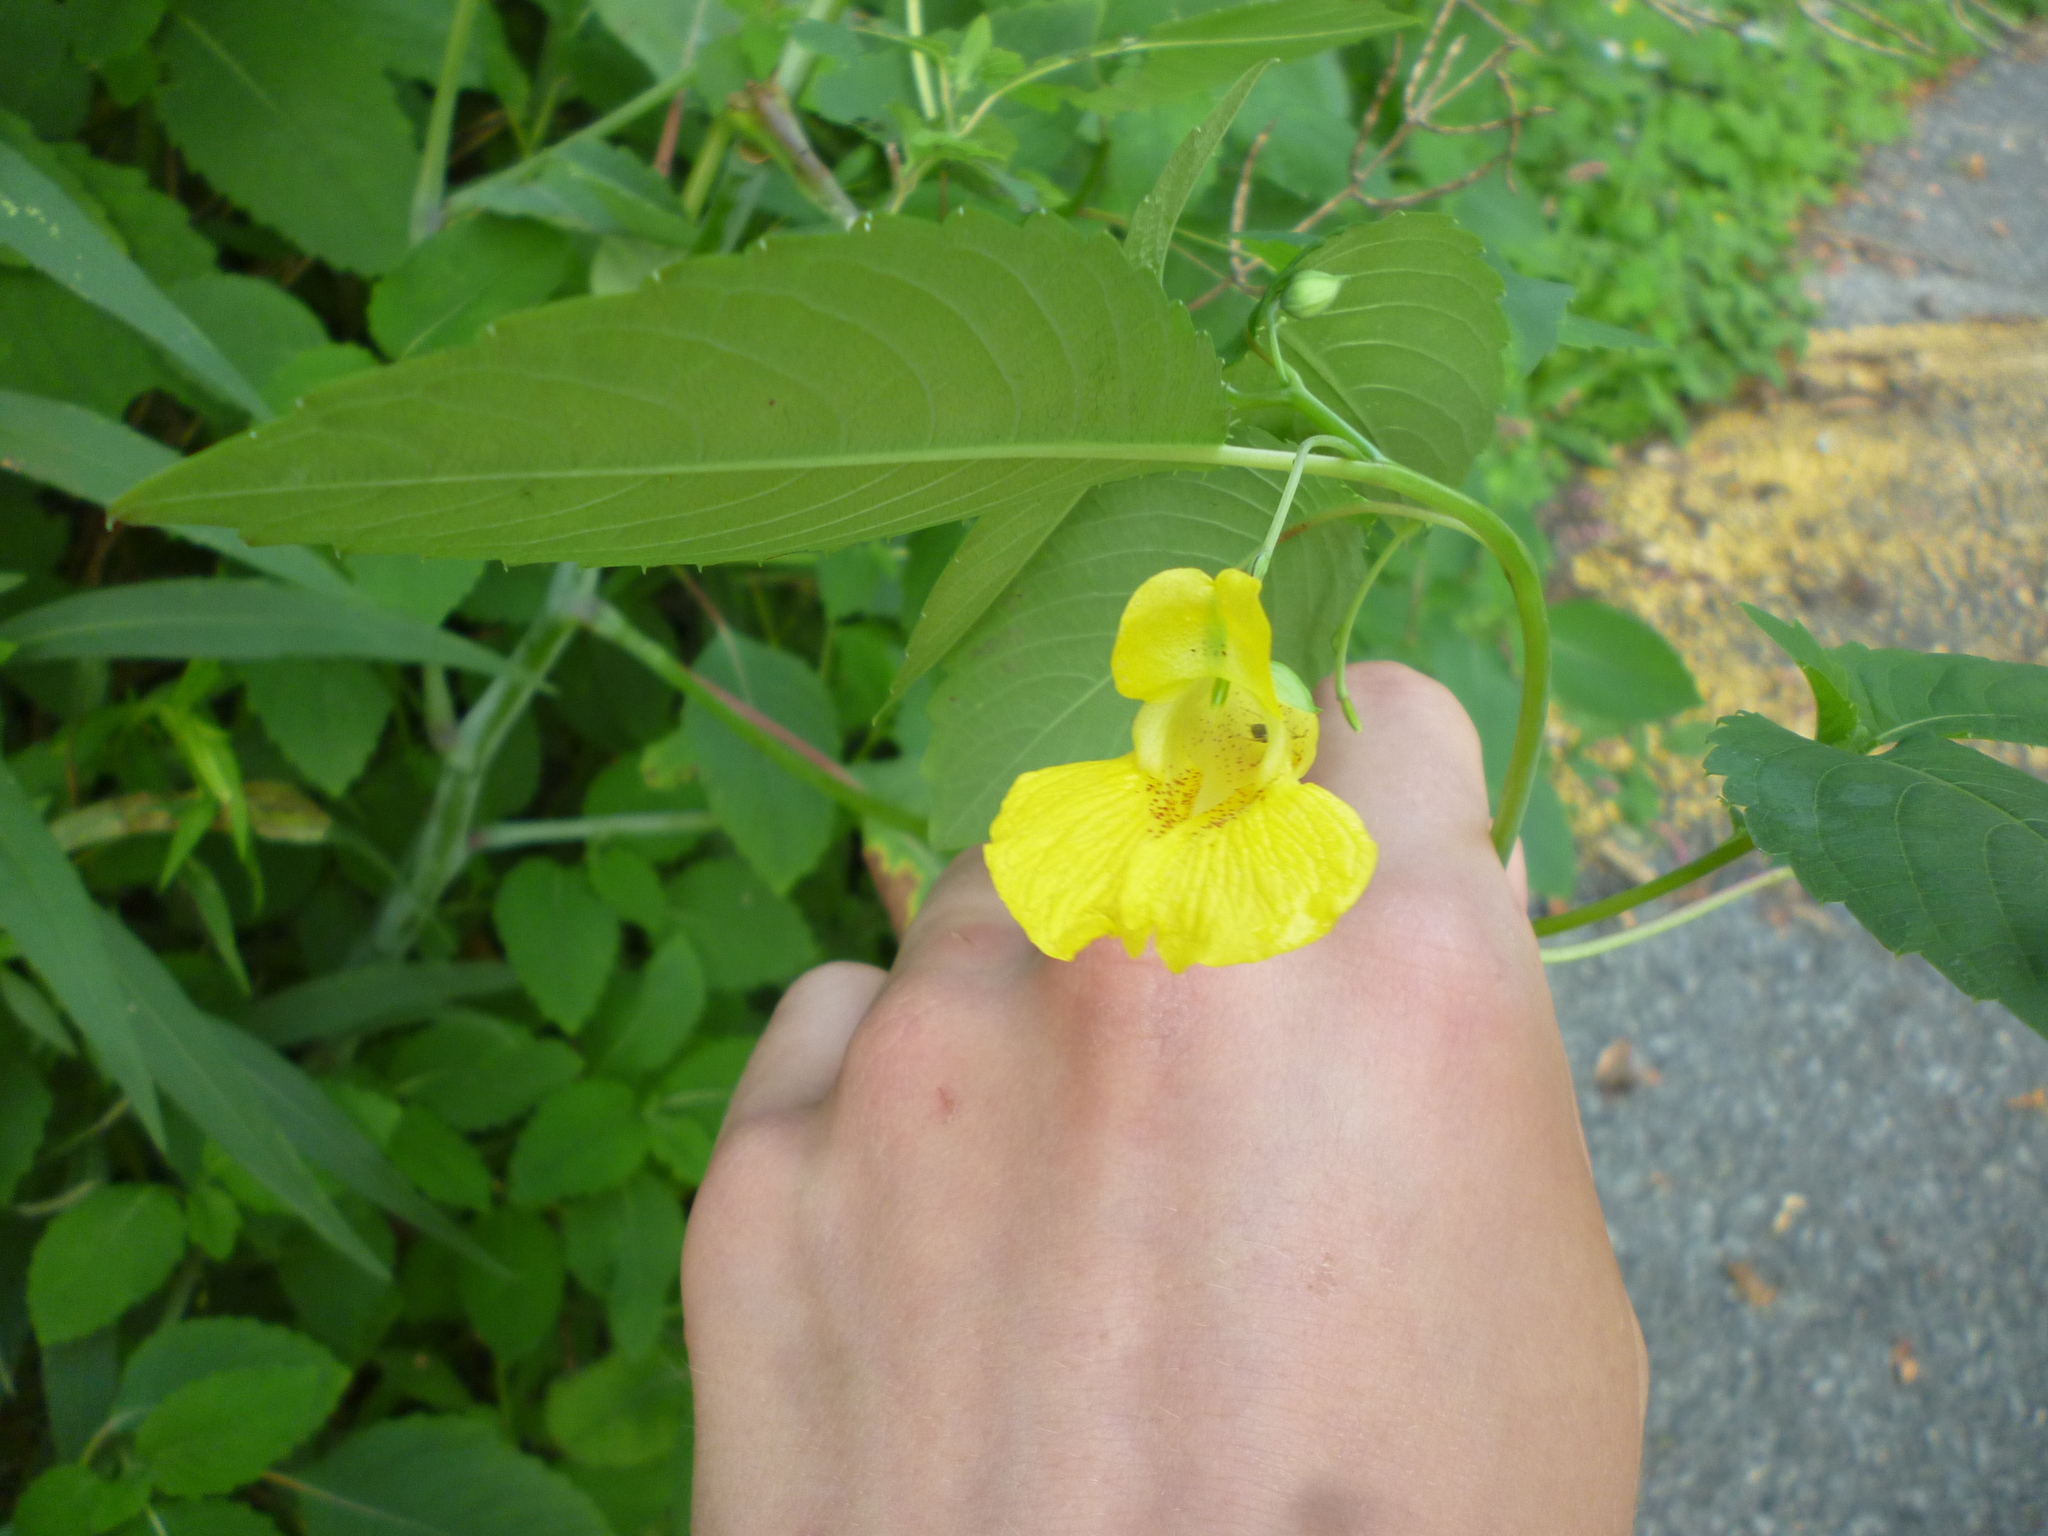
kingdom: Plantae
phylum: Tracheophyta
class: Magnoliopsida
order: Ericales
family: Balsaminaceae
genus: Impatiens
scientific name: Impatiens pallida
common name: Pale snapweed
